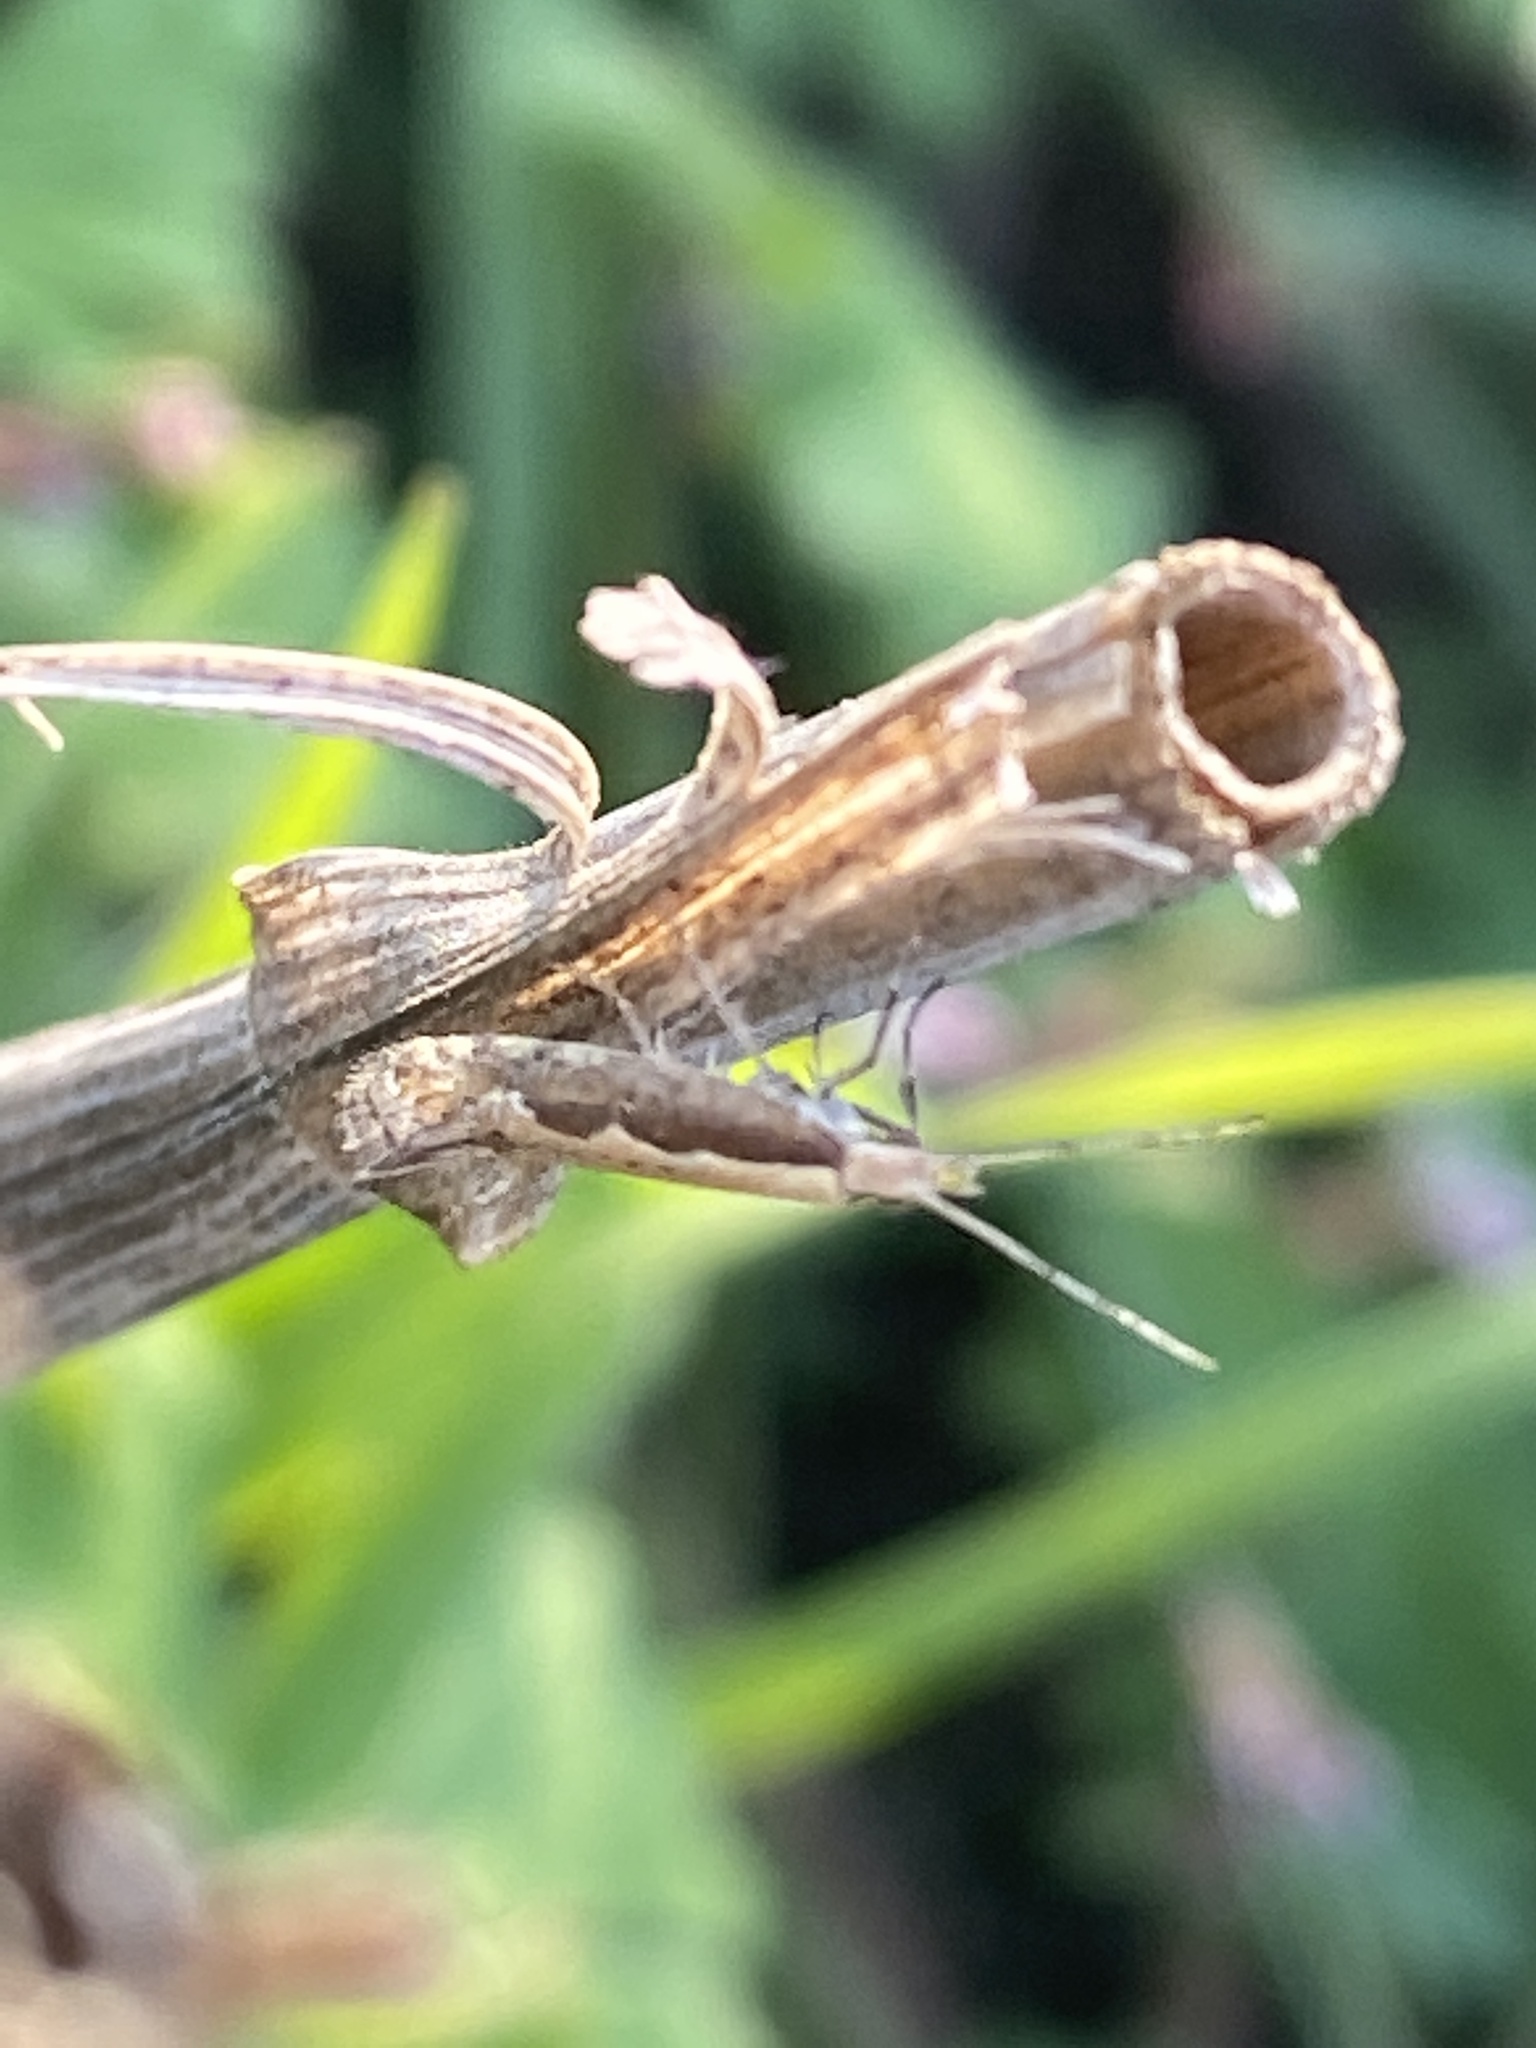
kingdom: Animalia
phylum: Arthropoda
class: Insecta
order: Lepidoptera
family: Plutellidae
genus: Plutella
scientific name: Plutella xylostella
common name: Diamond-back moth
